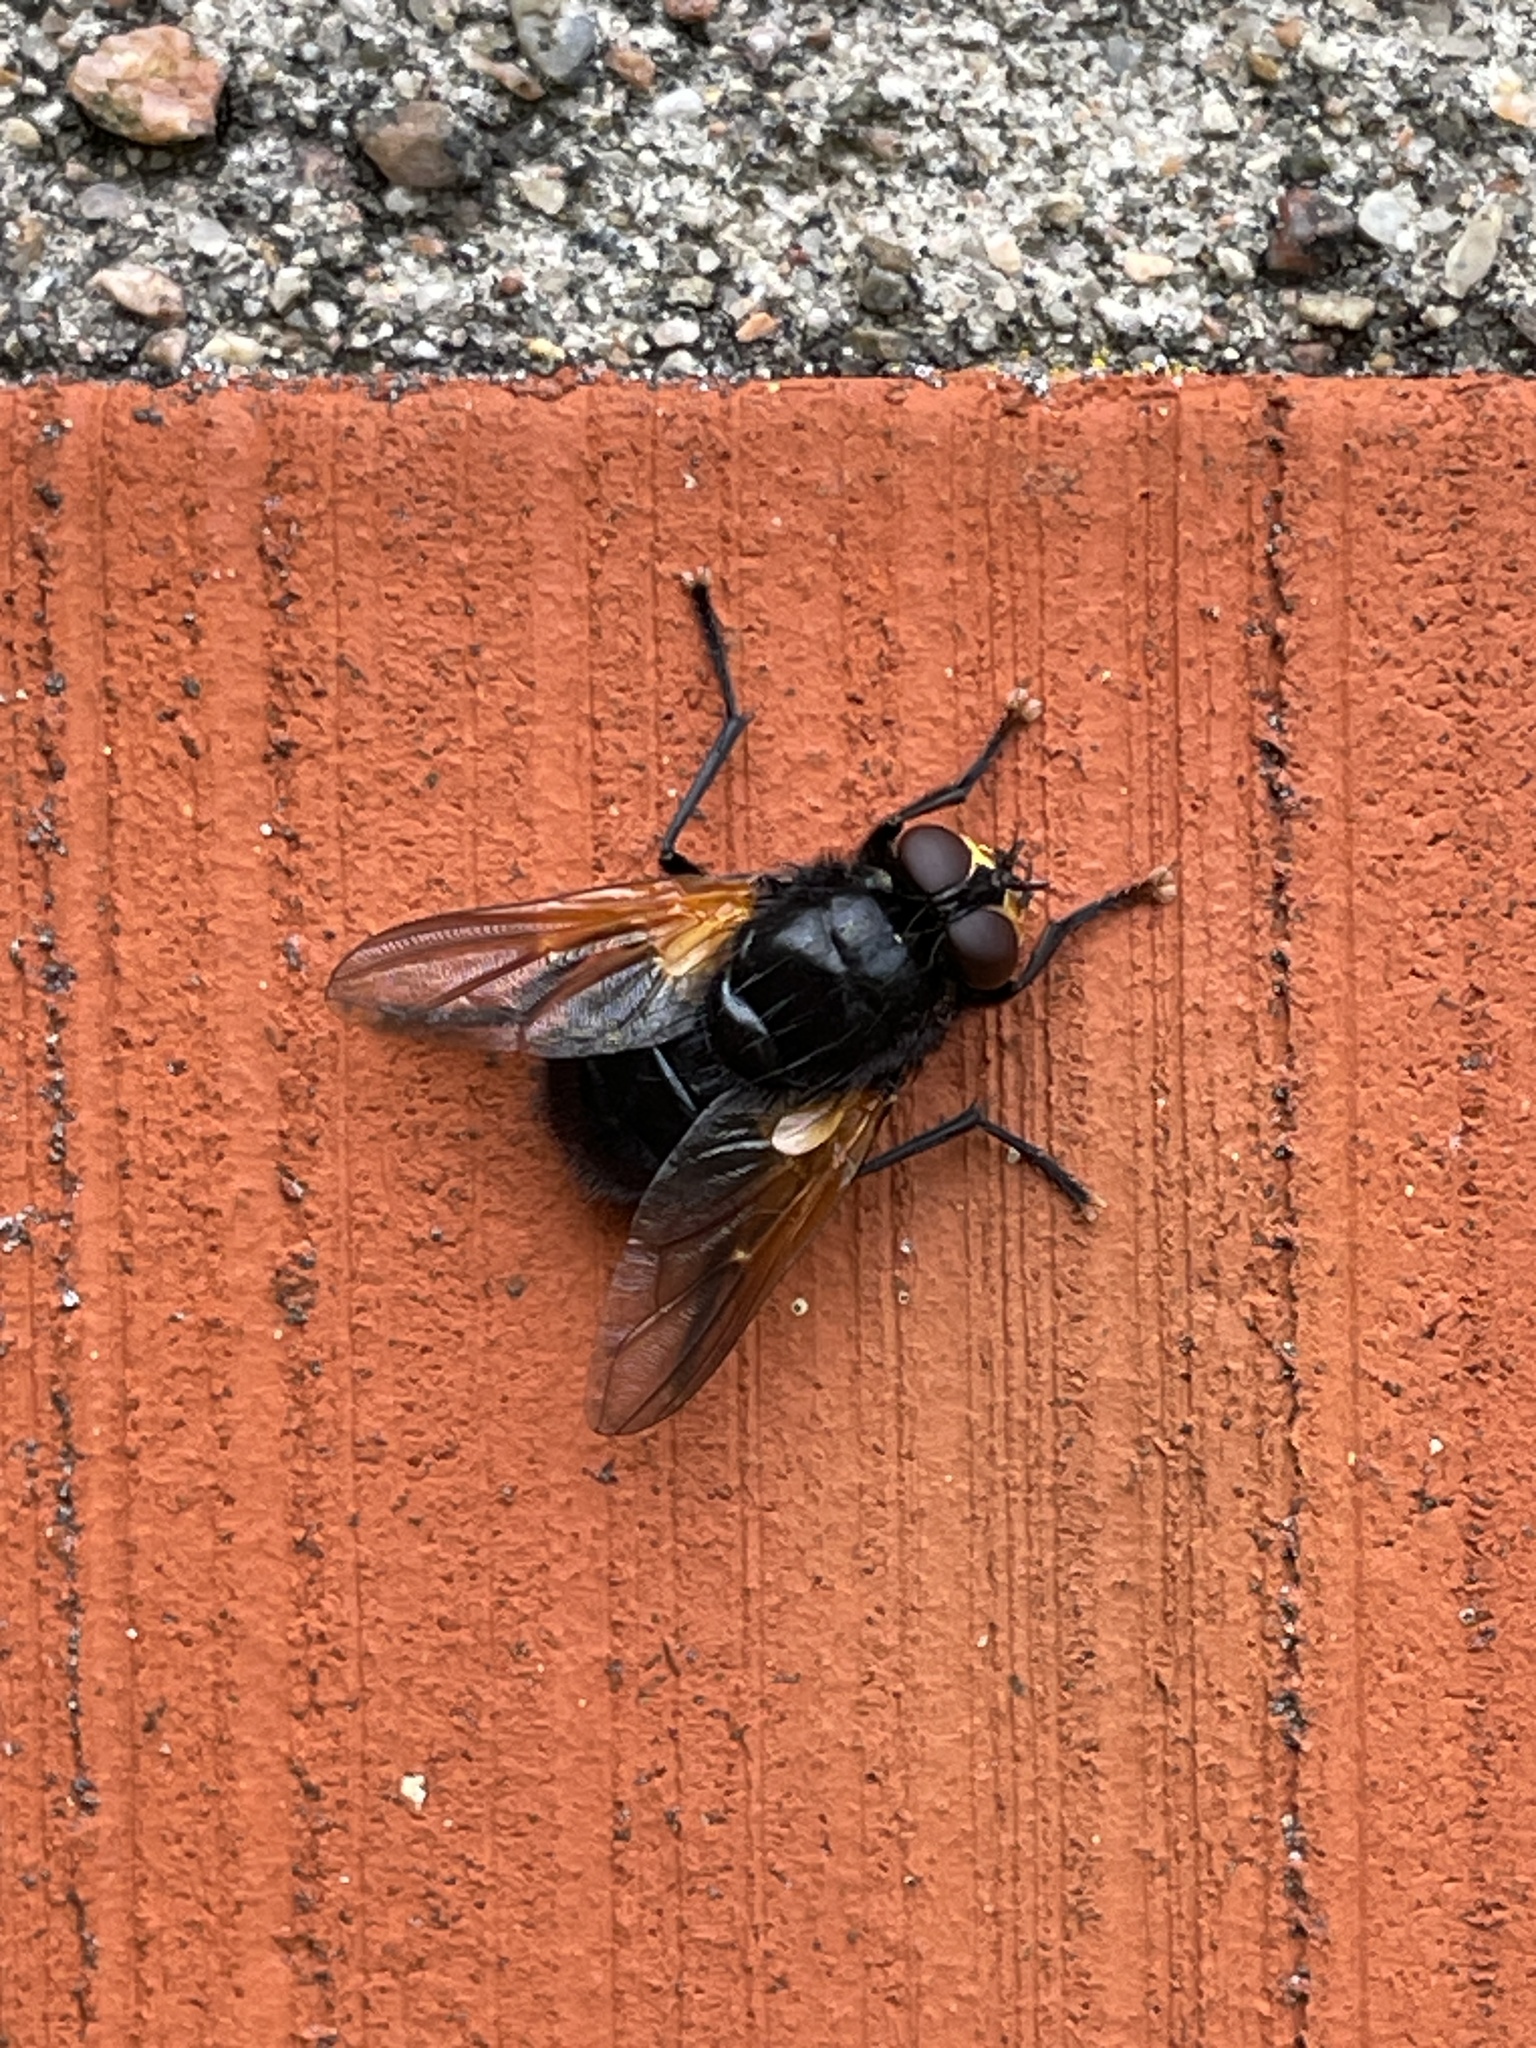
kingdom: Animalia
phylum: Arthropoda
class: Insecta
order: Diptera
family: Muscidae
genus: Mesembrina
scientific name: Mesembrina meridiana
